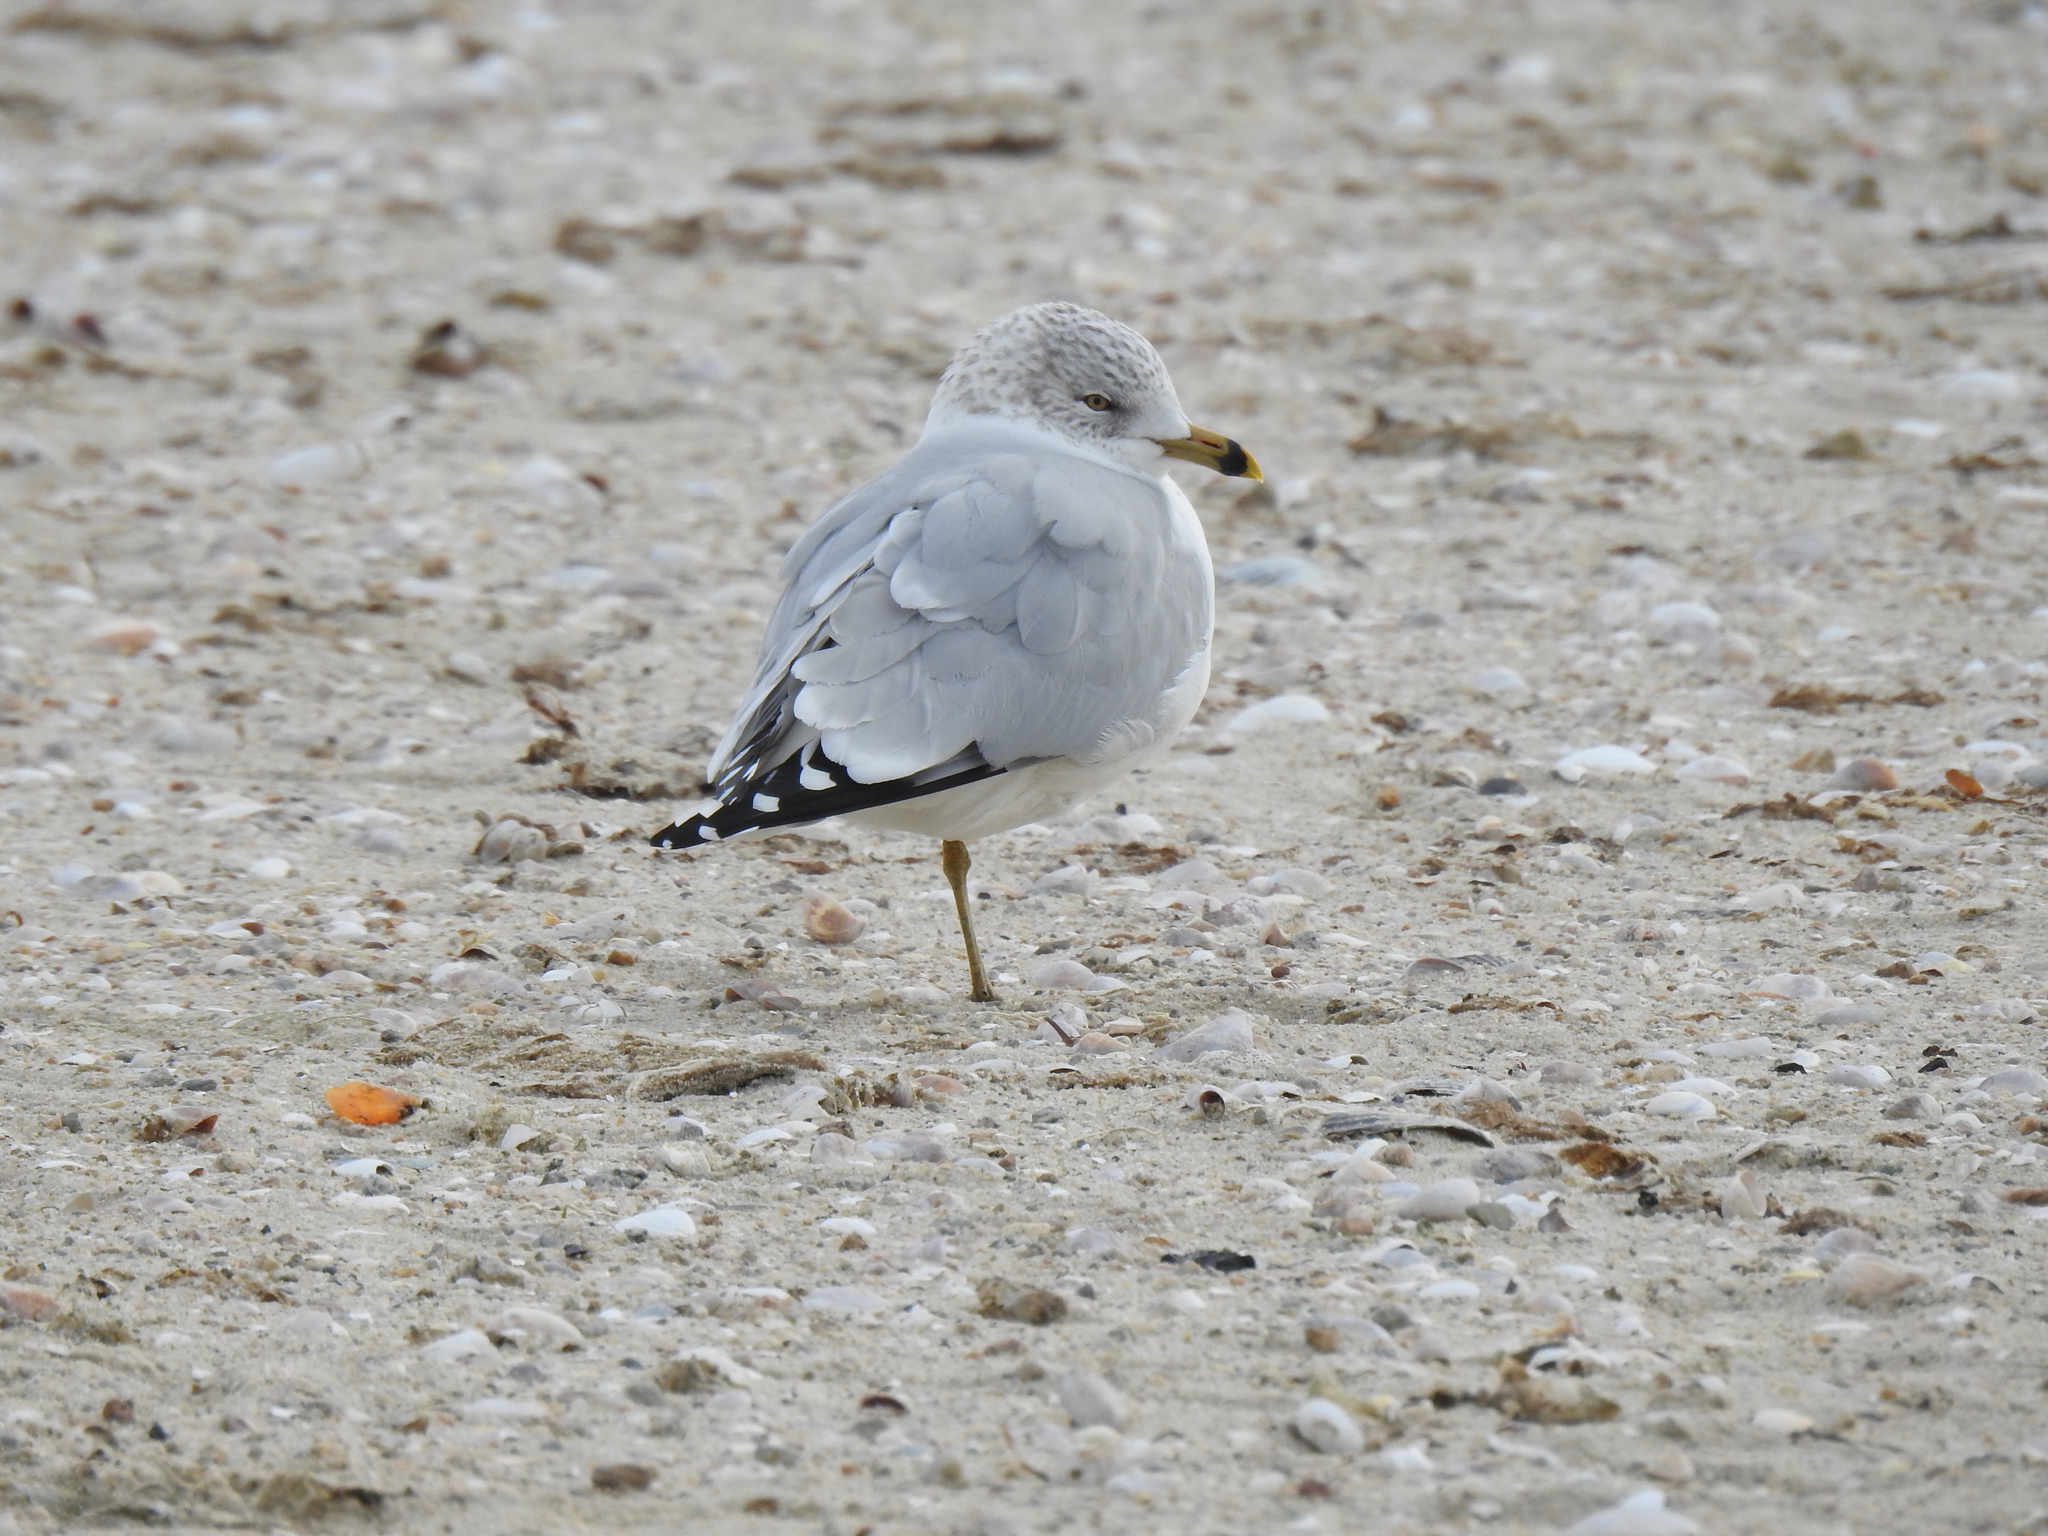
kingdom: Animalia
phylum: Chordata
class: Aves
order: Charadriiformes
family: Laridae
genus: Larus
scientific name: Larus delawarensis
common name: Ring-billed gull
